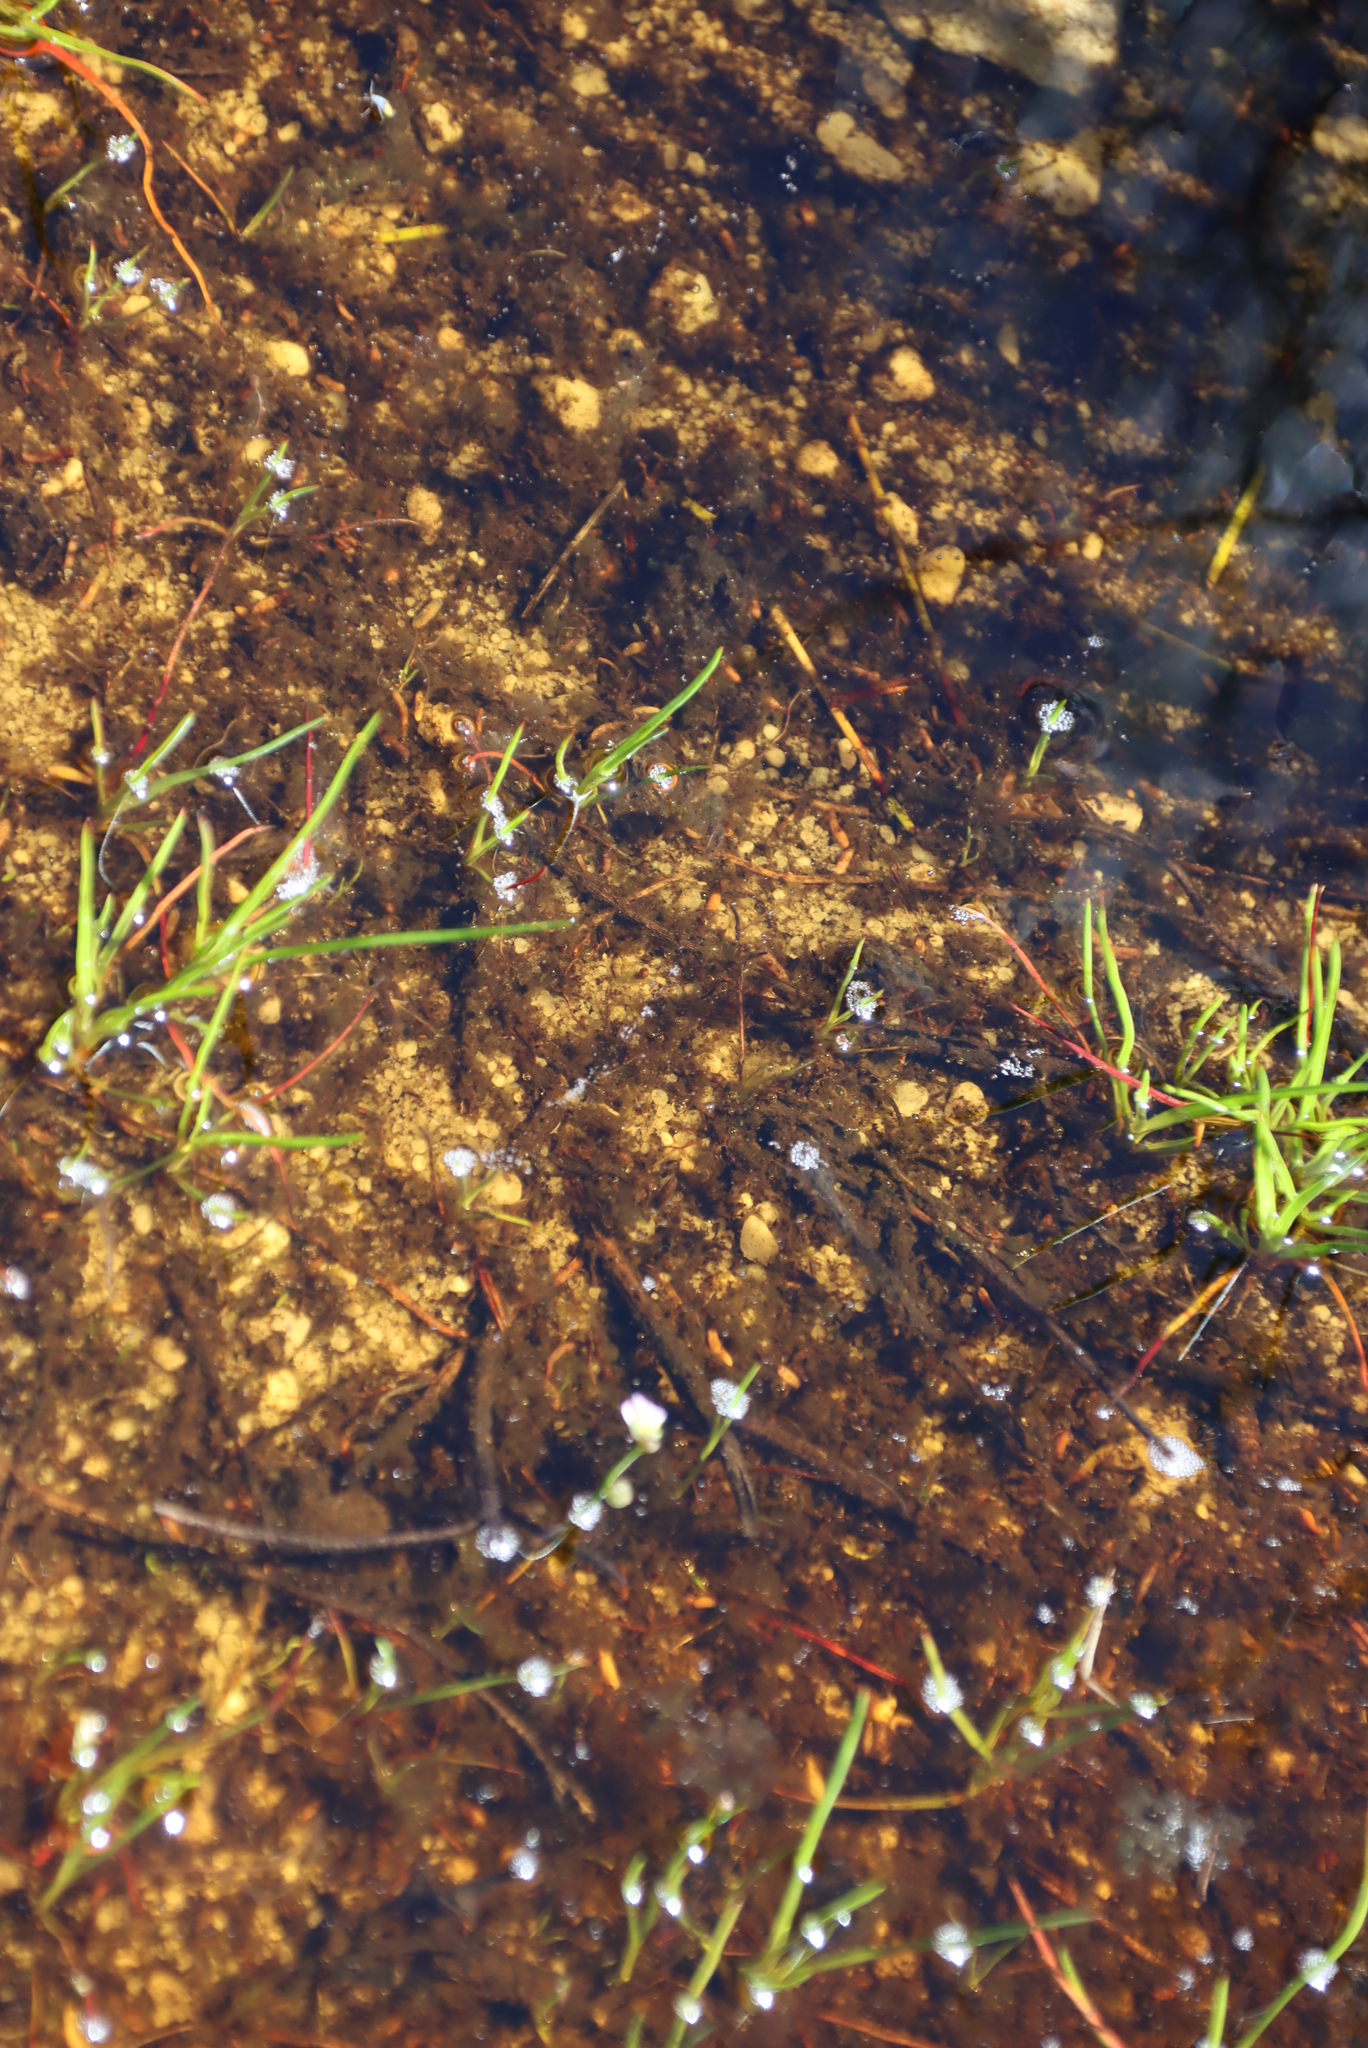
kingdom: Plantae
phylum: Tracheophyta
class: Magnoliopsida
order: Lamiales
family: Lentibulariaceae
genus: Utricularia
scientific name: Utricularia bisquamata
